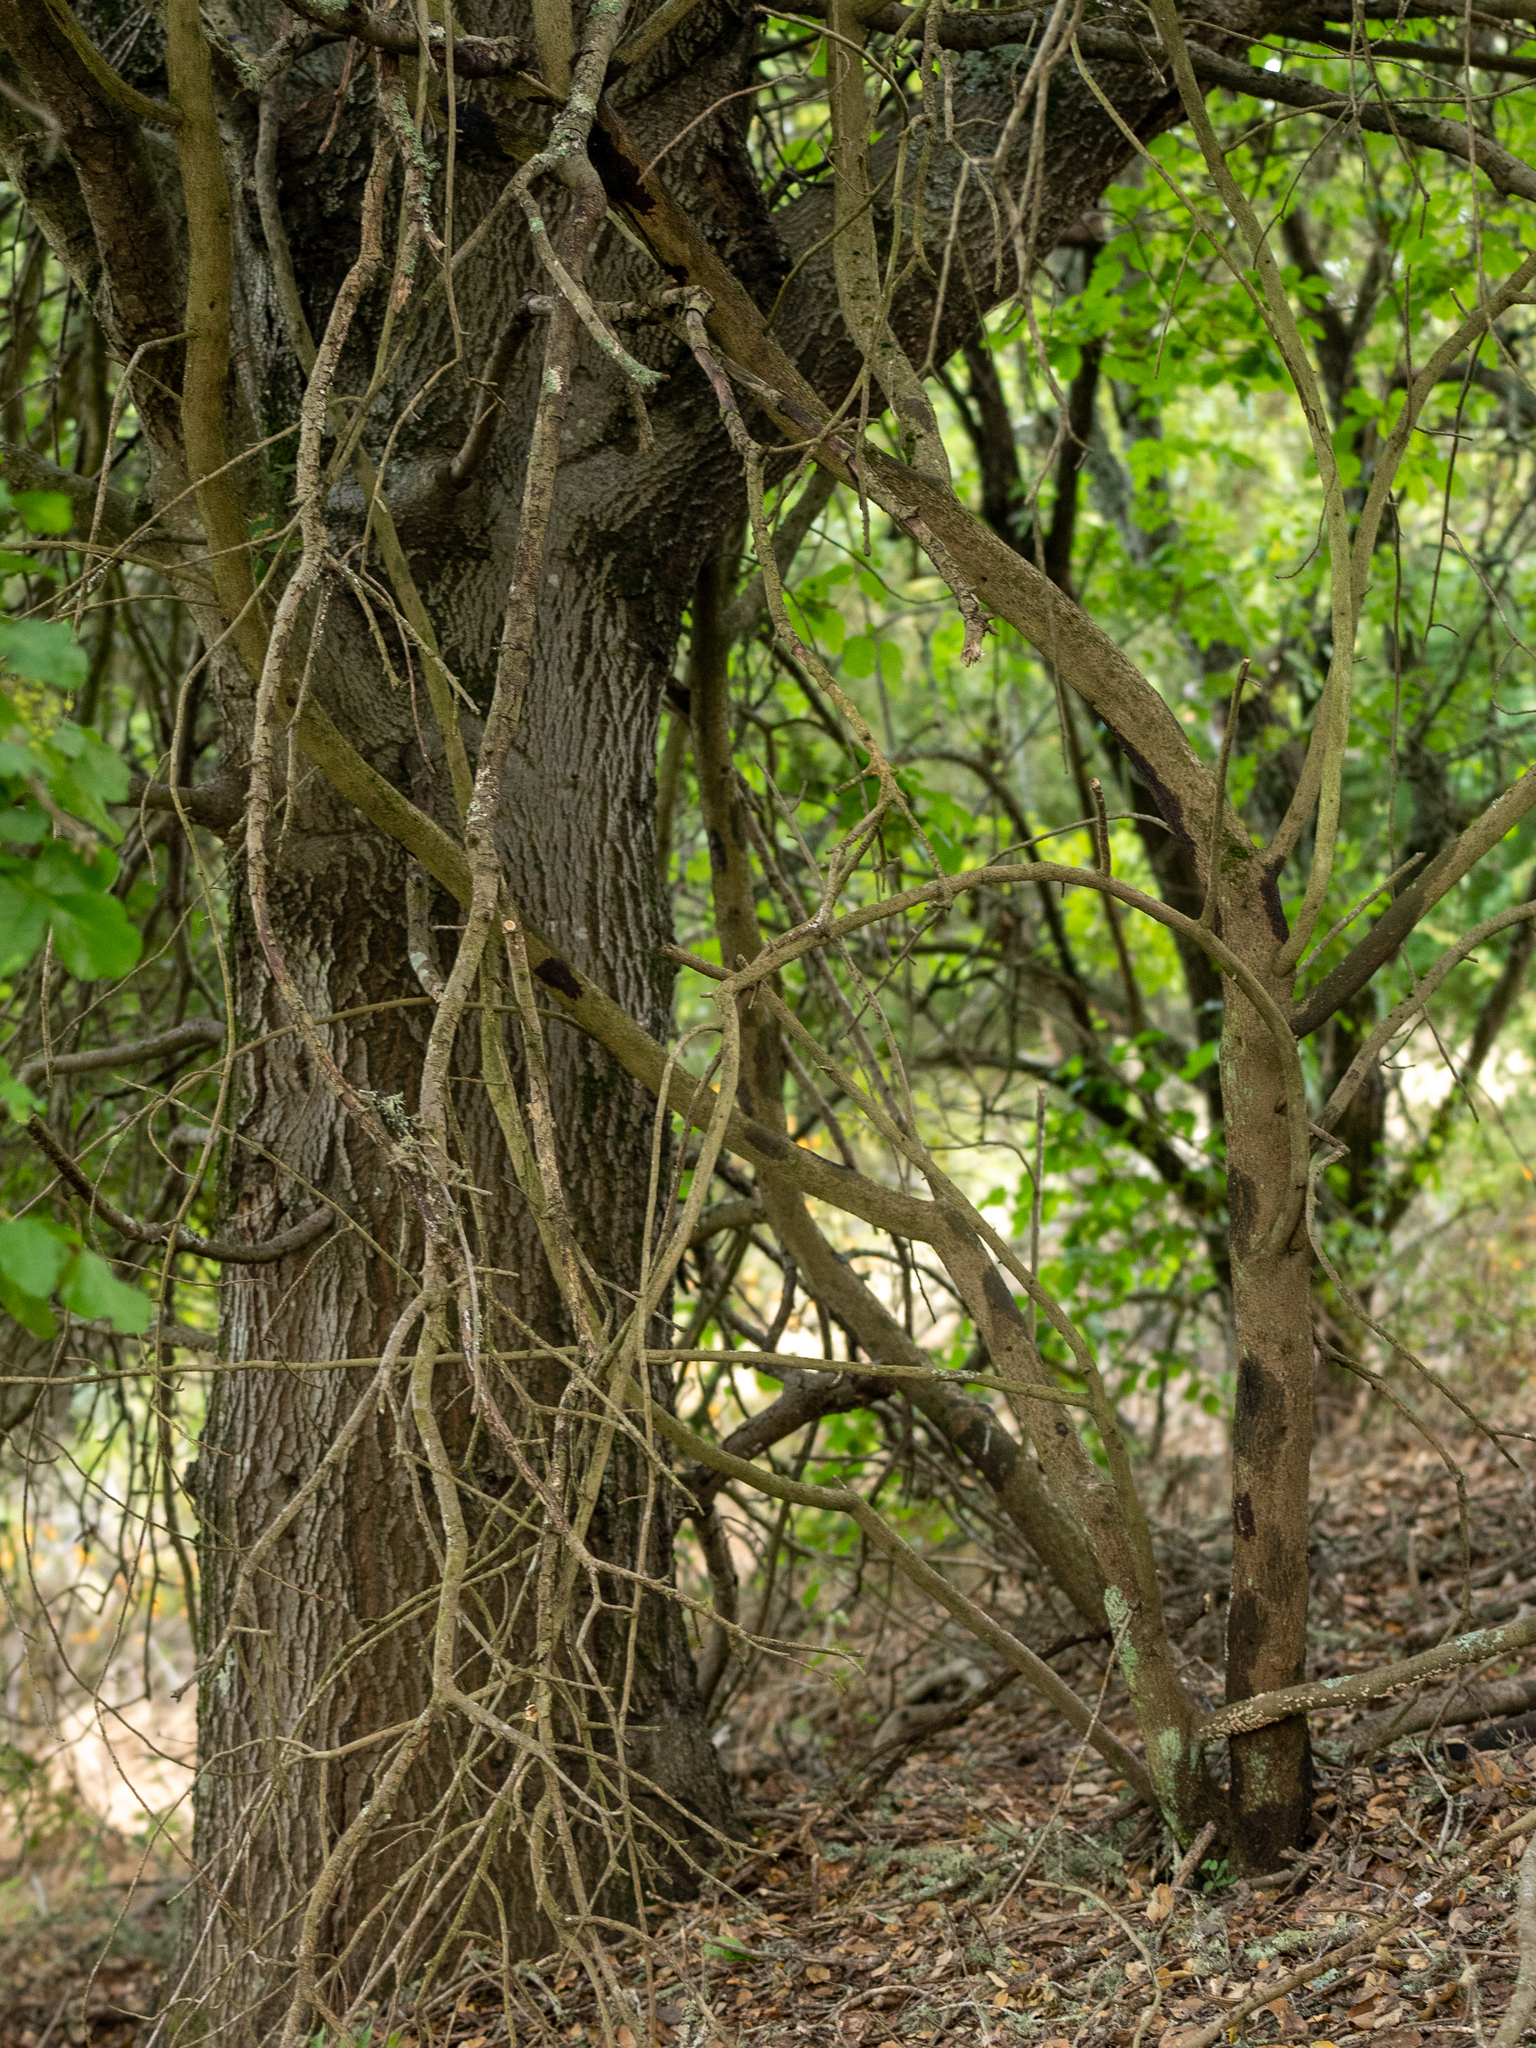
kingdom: Plantae
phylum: Tracheophyta
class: Magnoliopsida
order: Sapindales
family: Anacardiaceae
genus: Toxicodendron
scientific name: Toxicodendron diversilobum
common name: Pacific poison-oak
